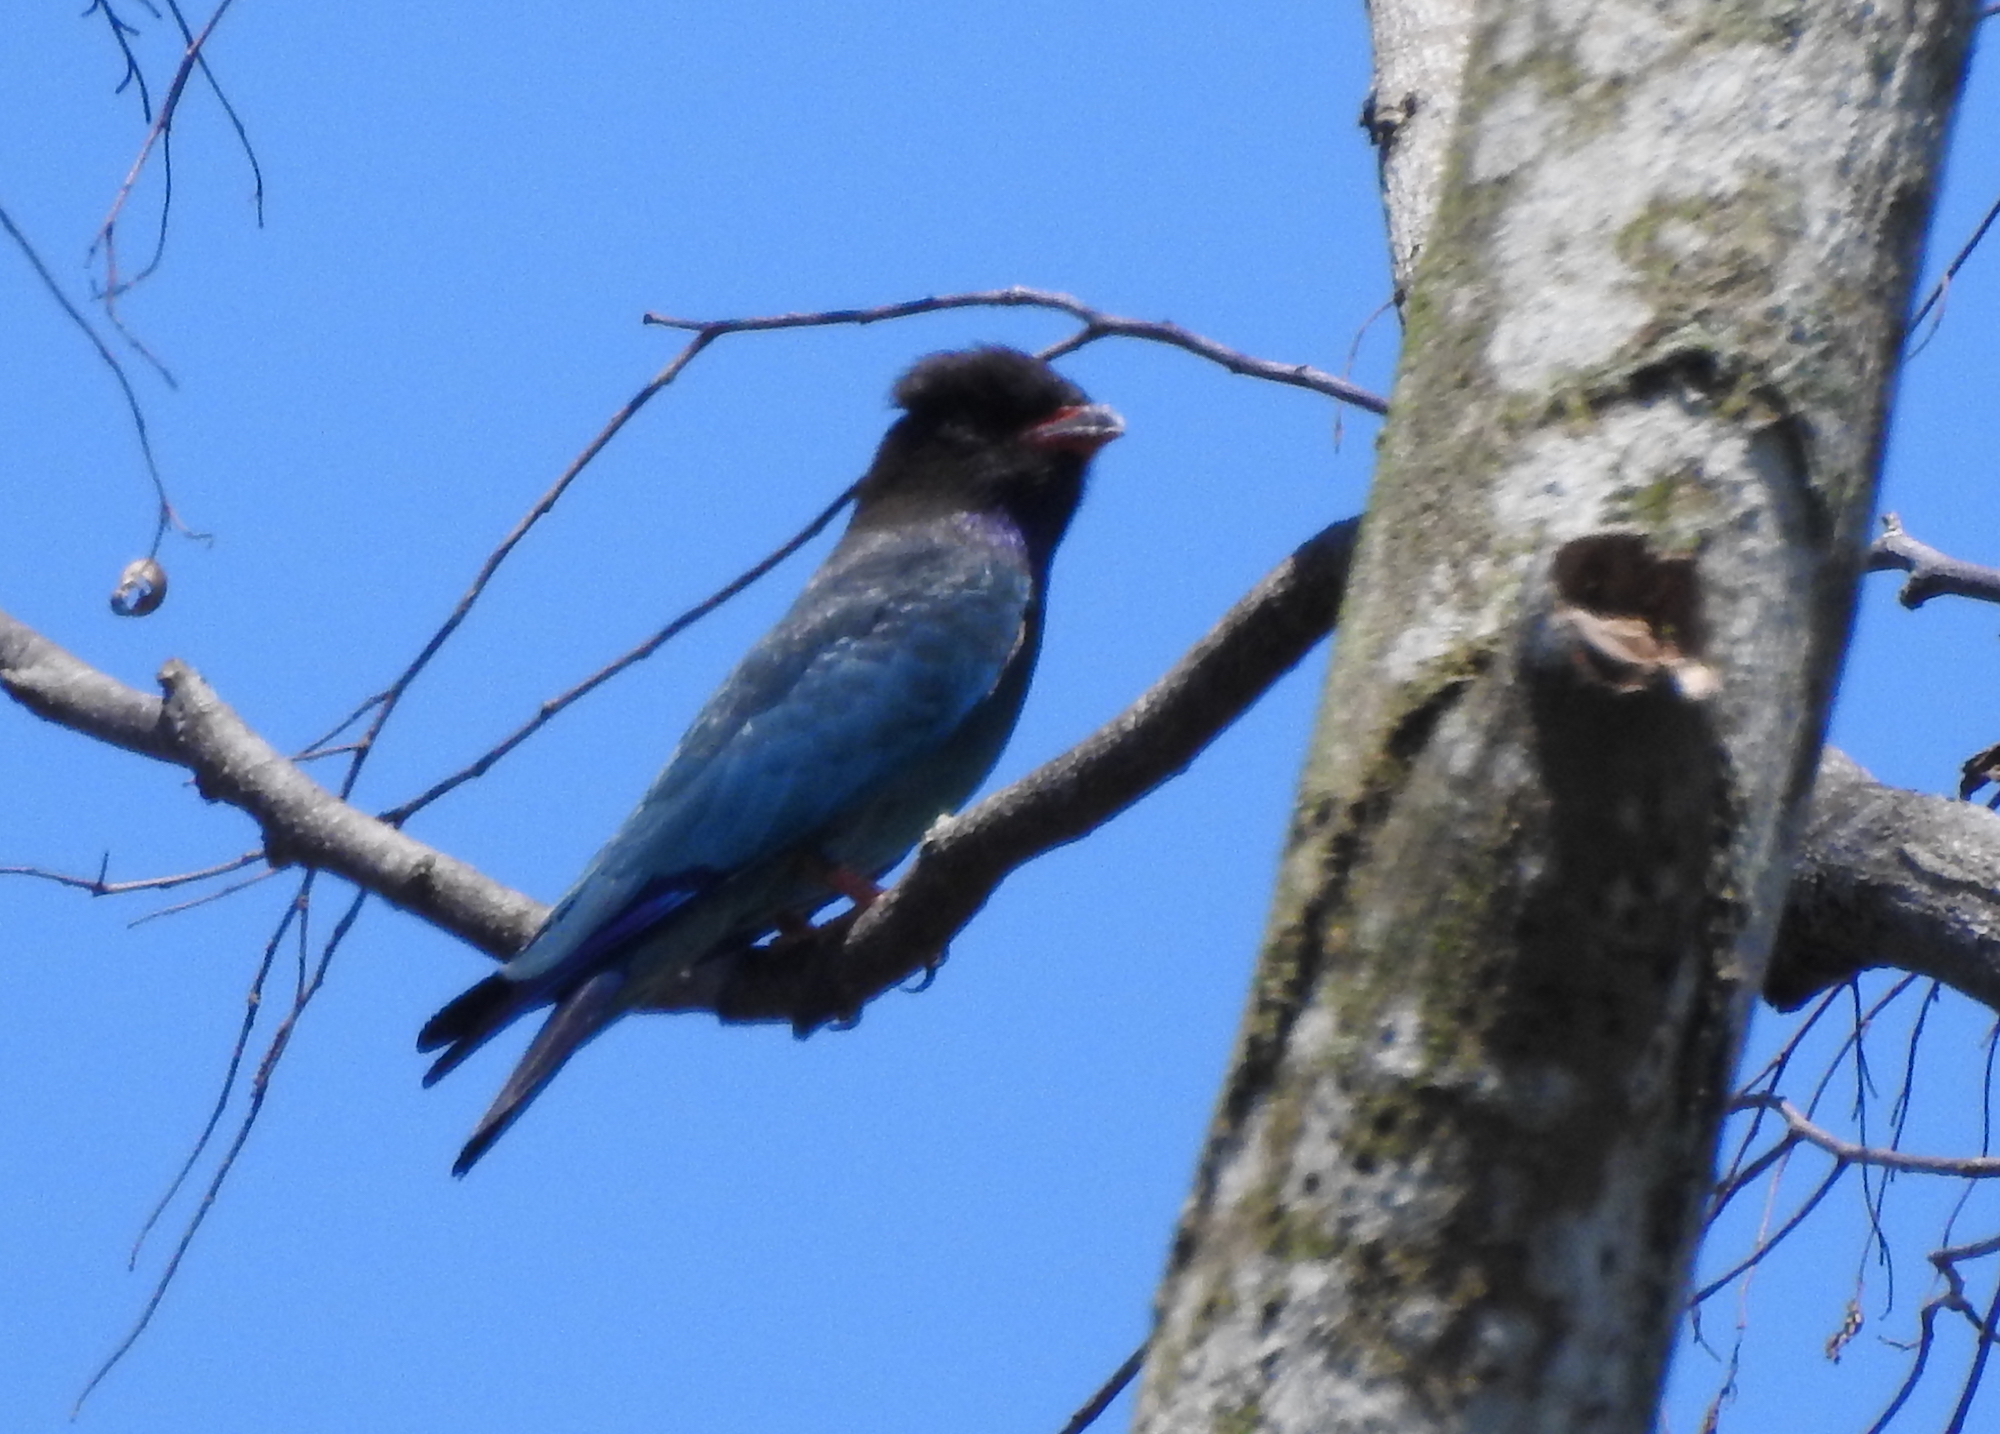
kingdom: Animalia
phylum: Chordata
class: Aves
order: Coraciiformes
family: Coraciidae
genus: Eurystomus
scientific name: Eurystomus orientalis
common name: Oriental dollarbird
